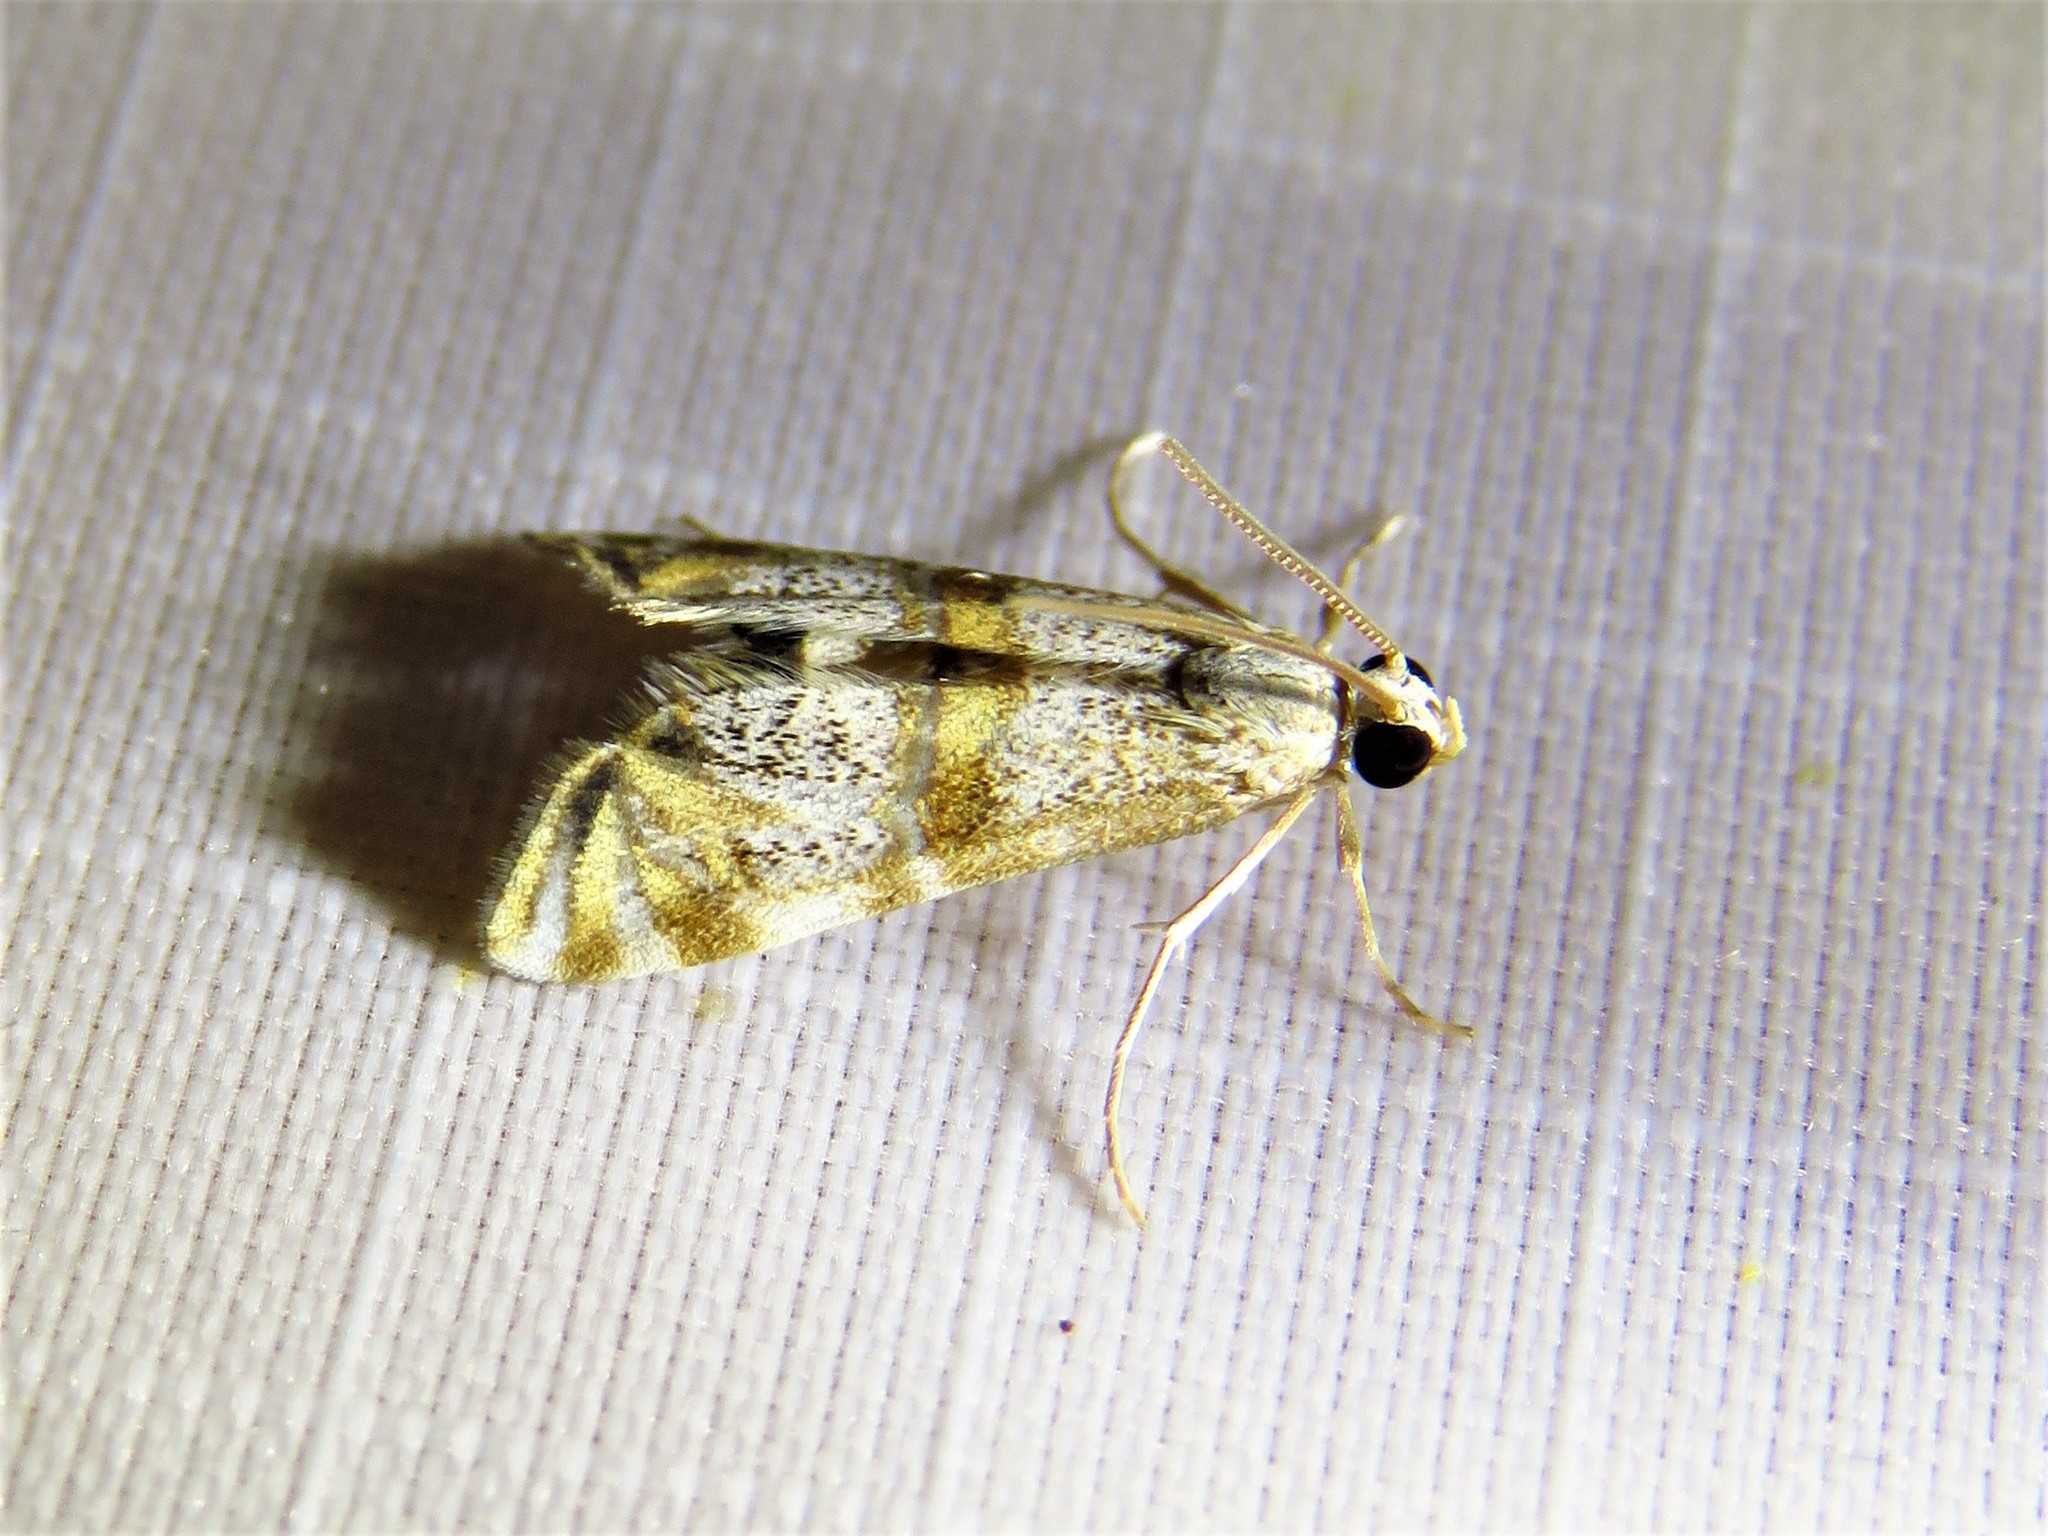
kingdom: Animalia
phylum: Arthropoda
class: Insecta
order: Lepidoptera
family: Crambidae
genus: Petrophila
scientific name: Petrophila bifascialis
